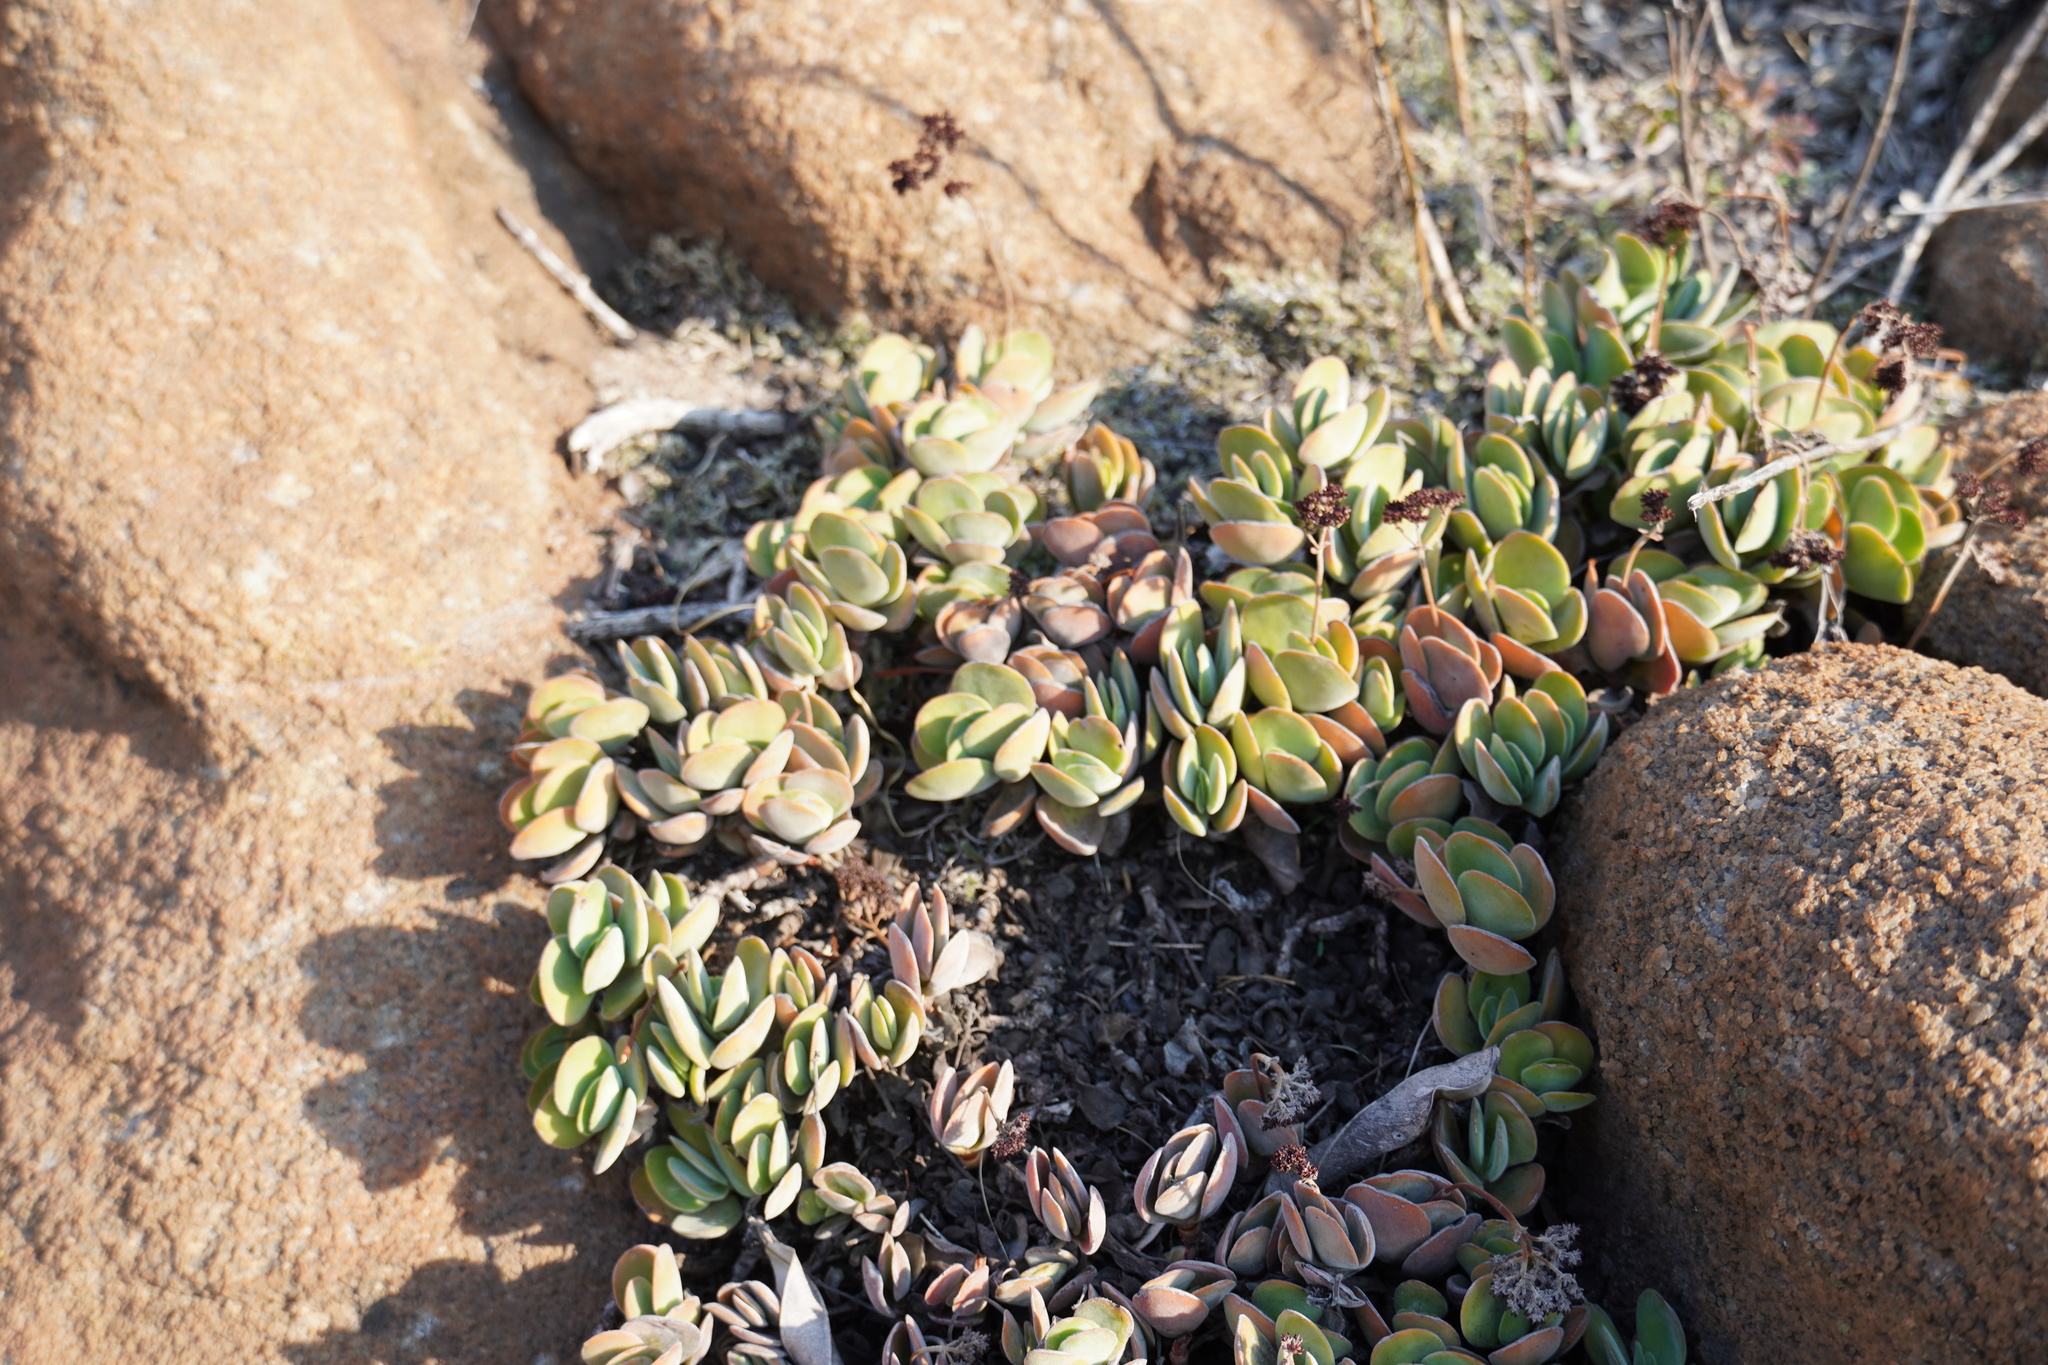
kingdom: Plantae
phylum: Tracheophyta
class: Magnoliopsida
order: Saxifragales
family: Crassulaceae
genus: Crassula
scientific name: Crassula globularioides
